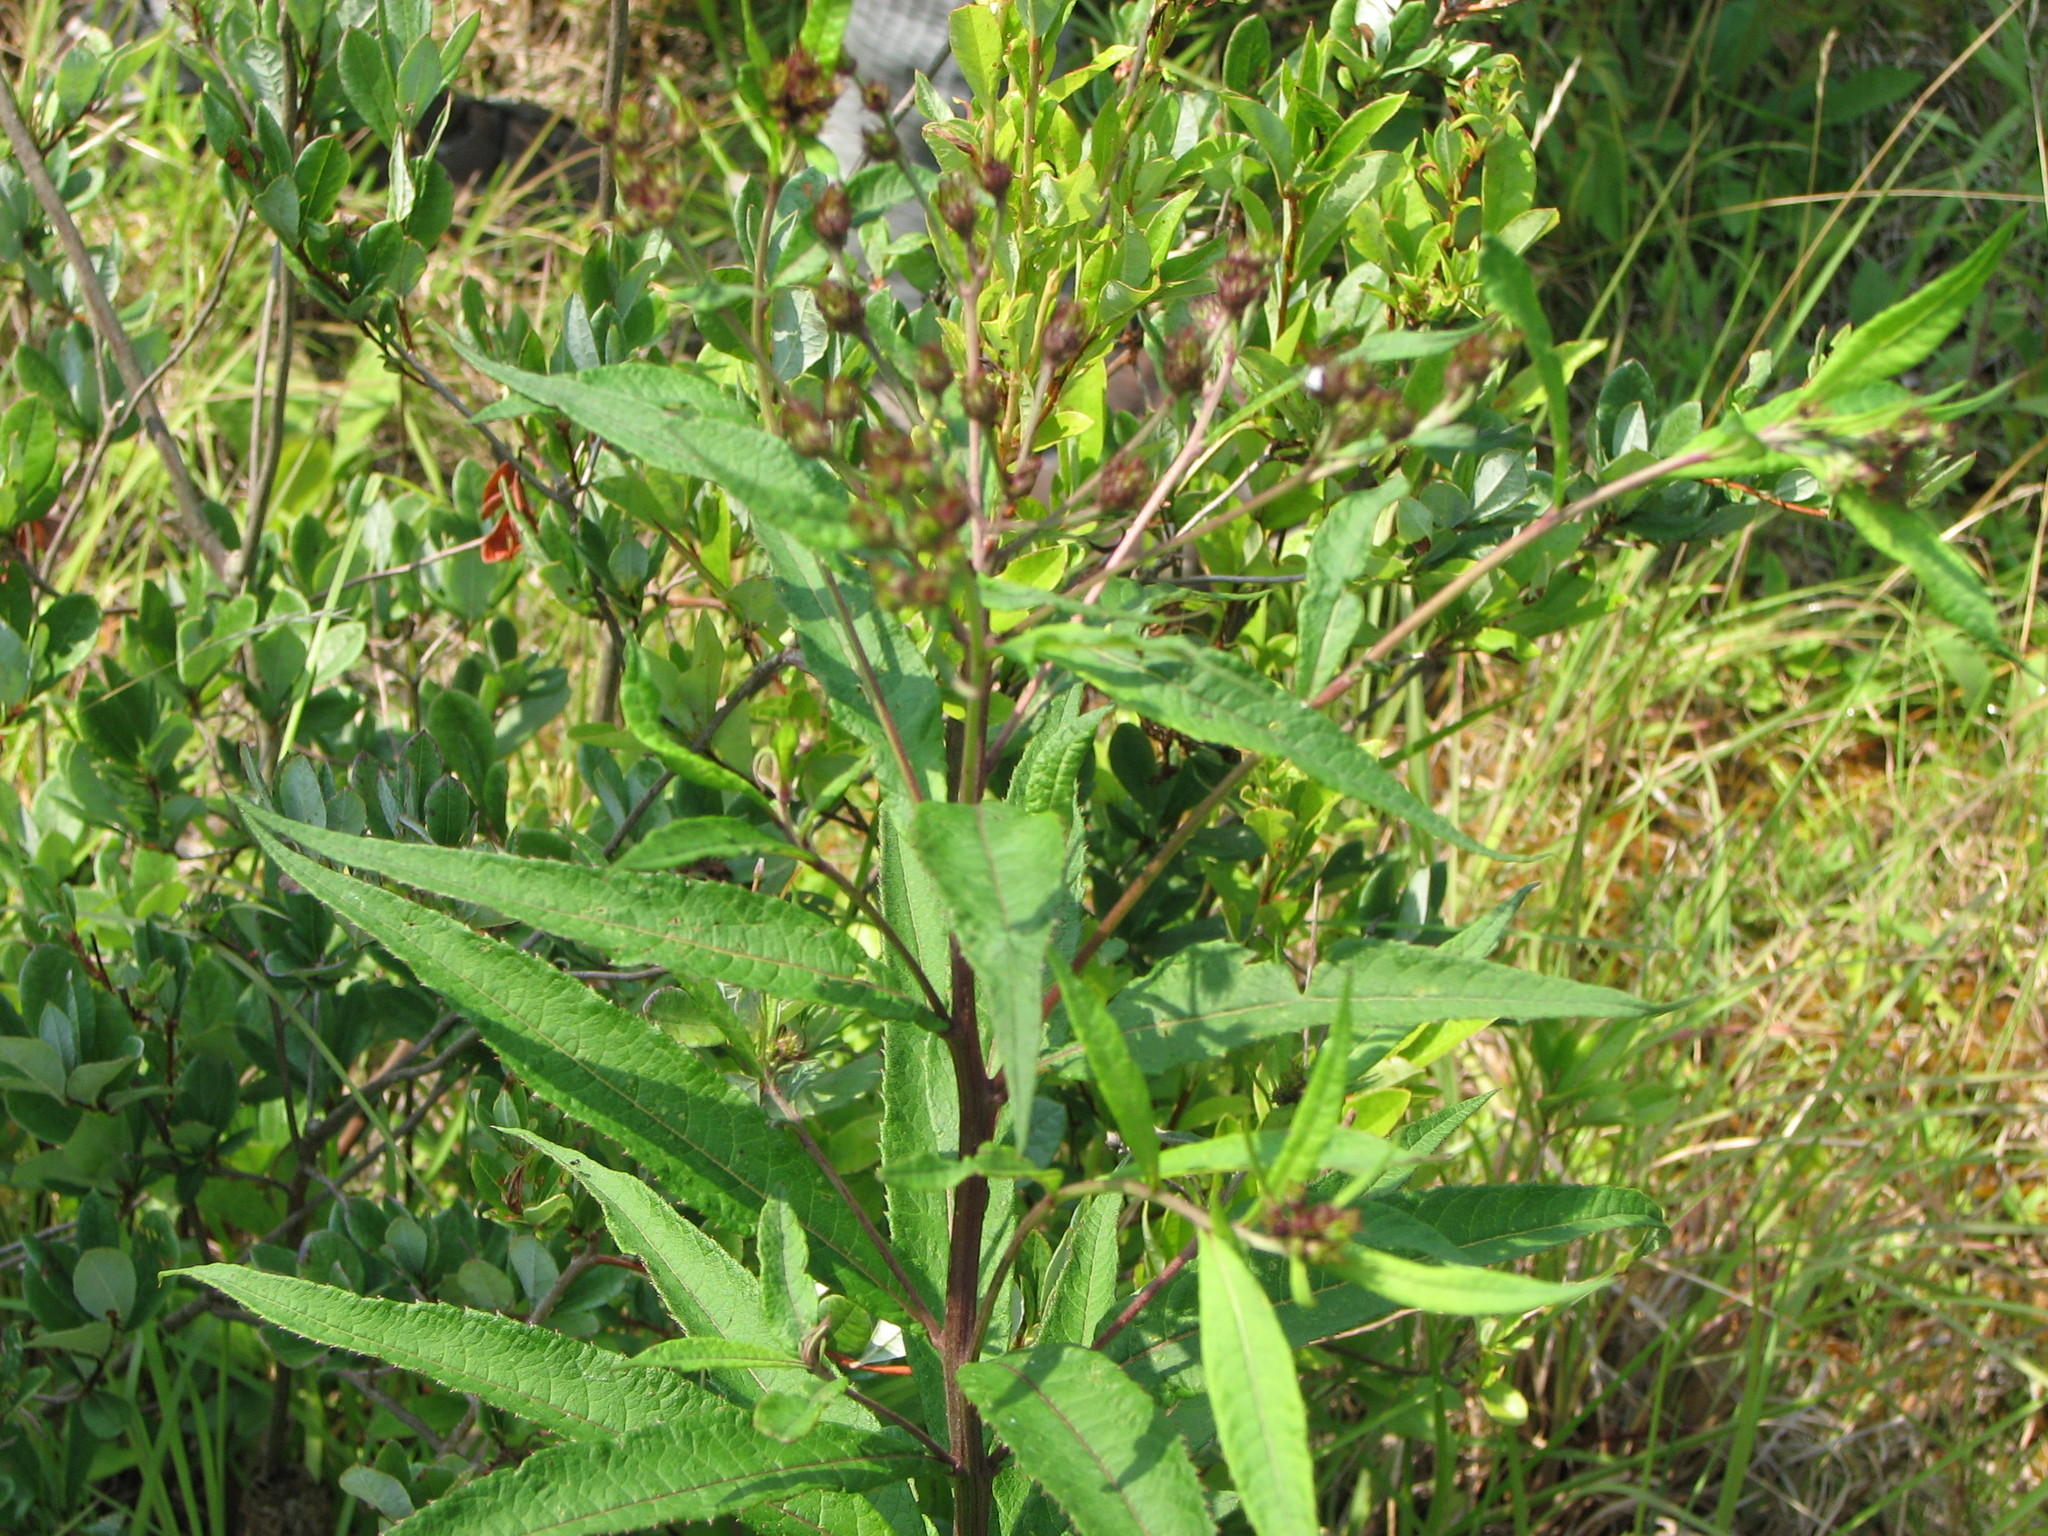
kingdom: Plantae
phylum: Tracheophyta
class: Magnoliopsida
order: Asterales
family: Asteraceae
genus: Vernonia
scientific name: Vernonia noveboracensis
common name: New york ironweed
